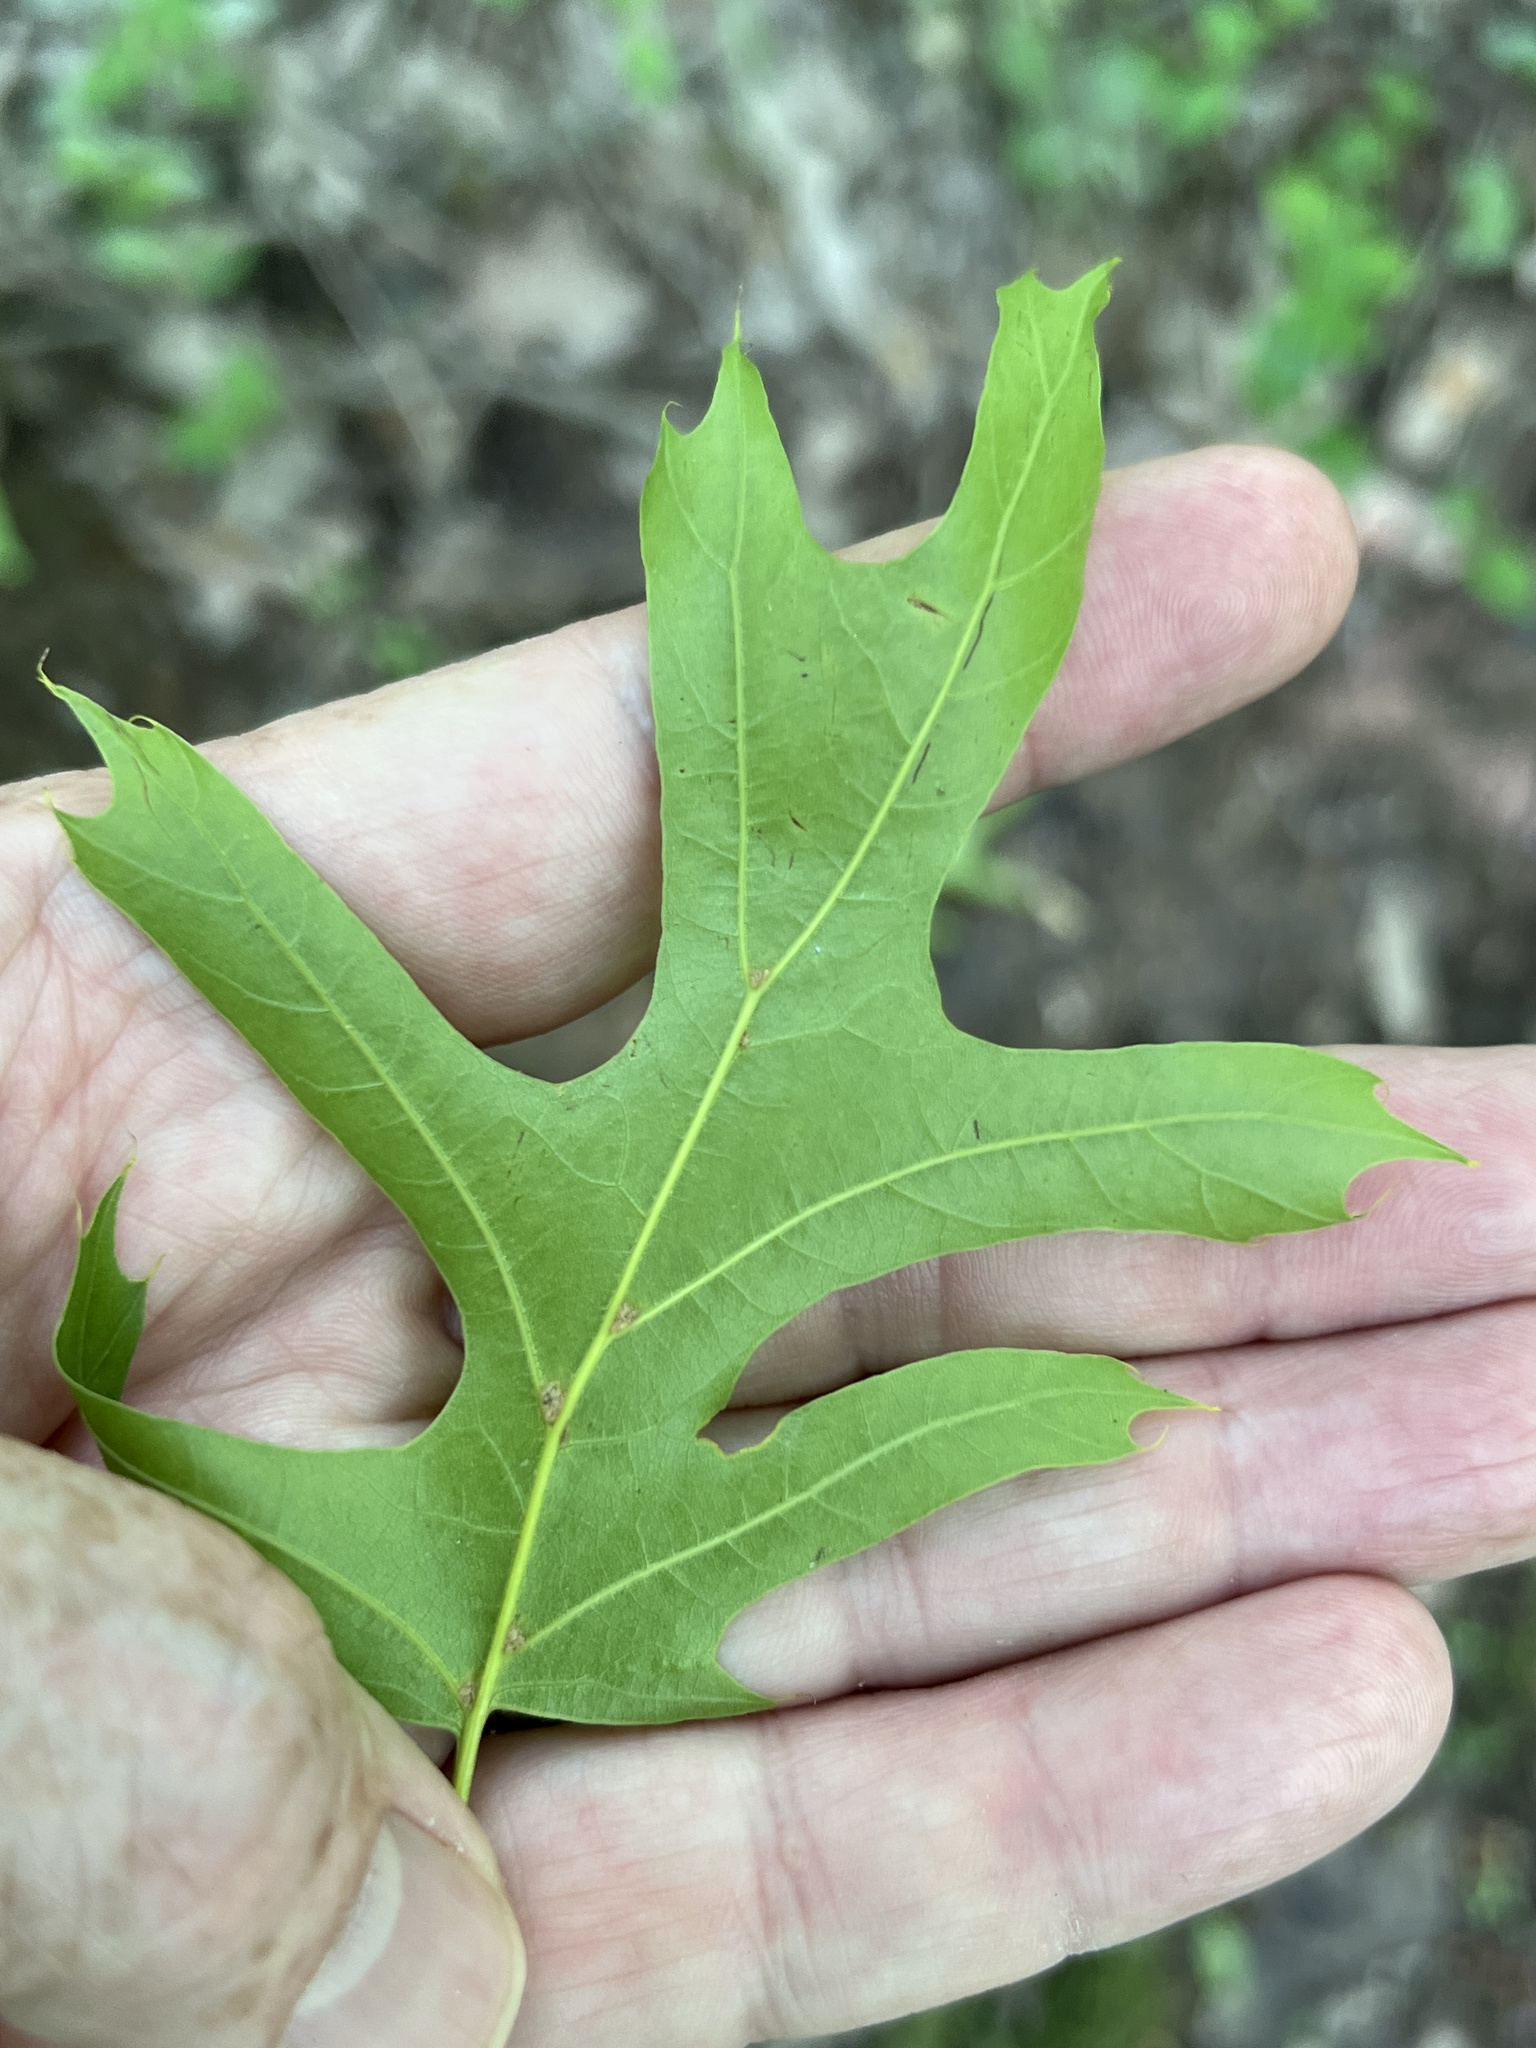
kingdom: Plantae
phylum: Tracheophyta
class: Magnoliopsida
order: Fagales
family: Fagaceae
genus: Quercus
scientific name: Quercus palustris
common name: Pin oak
